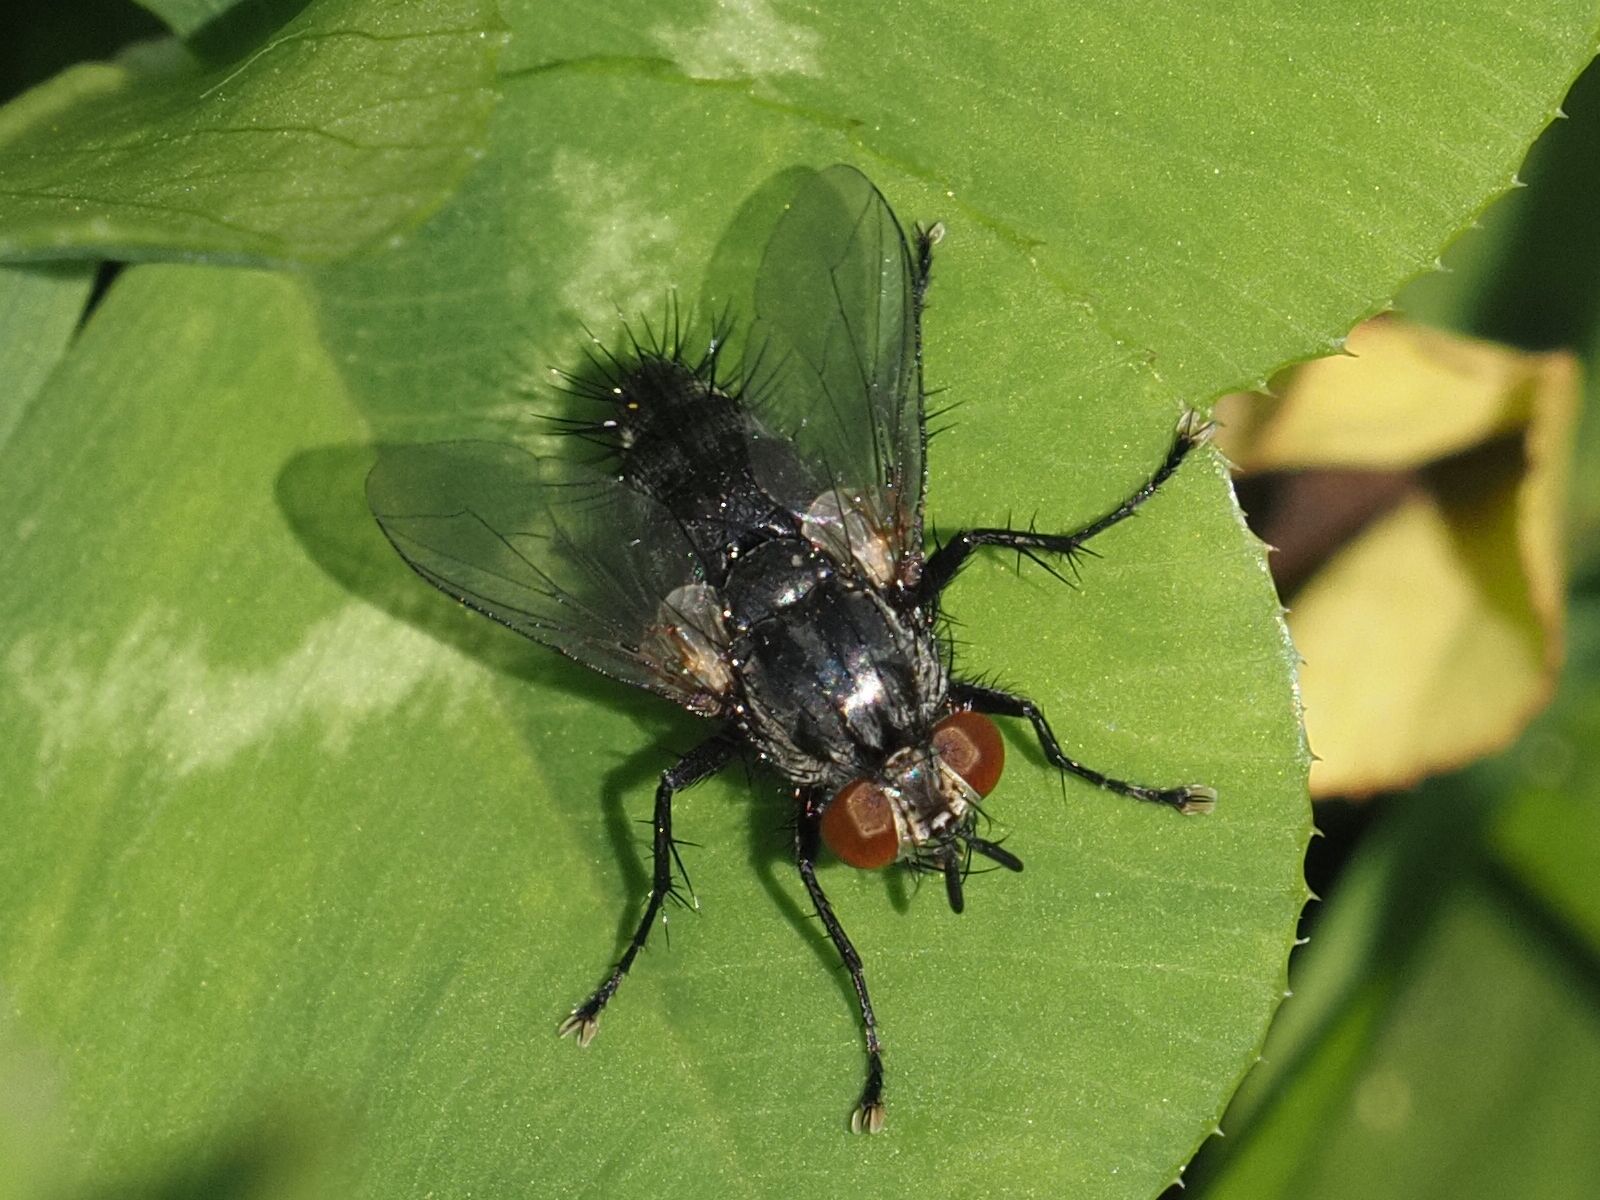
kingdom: Animalia
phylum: Arthropoda
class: Insecta
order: Diptera
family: Tachinidae
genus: Voria
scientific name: Voria ruralis
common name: Parasitic fly
